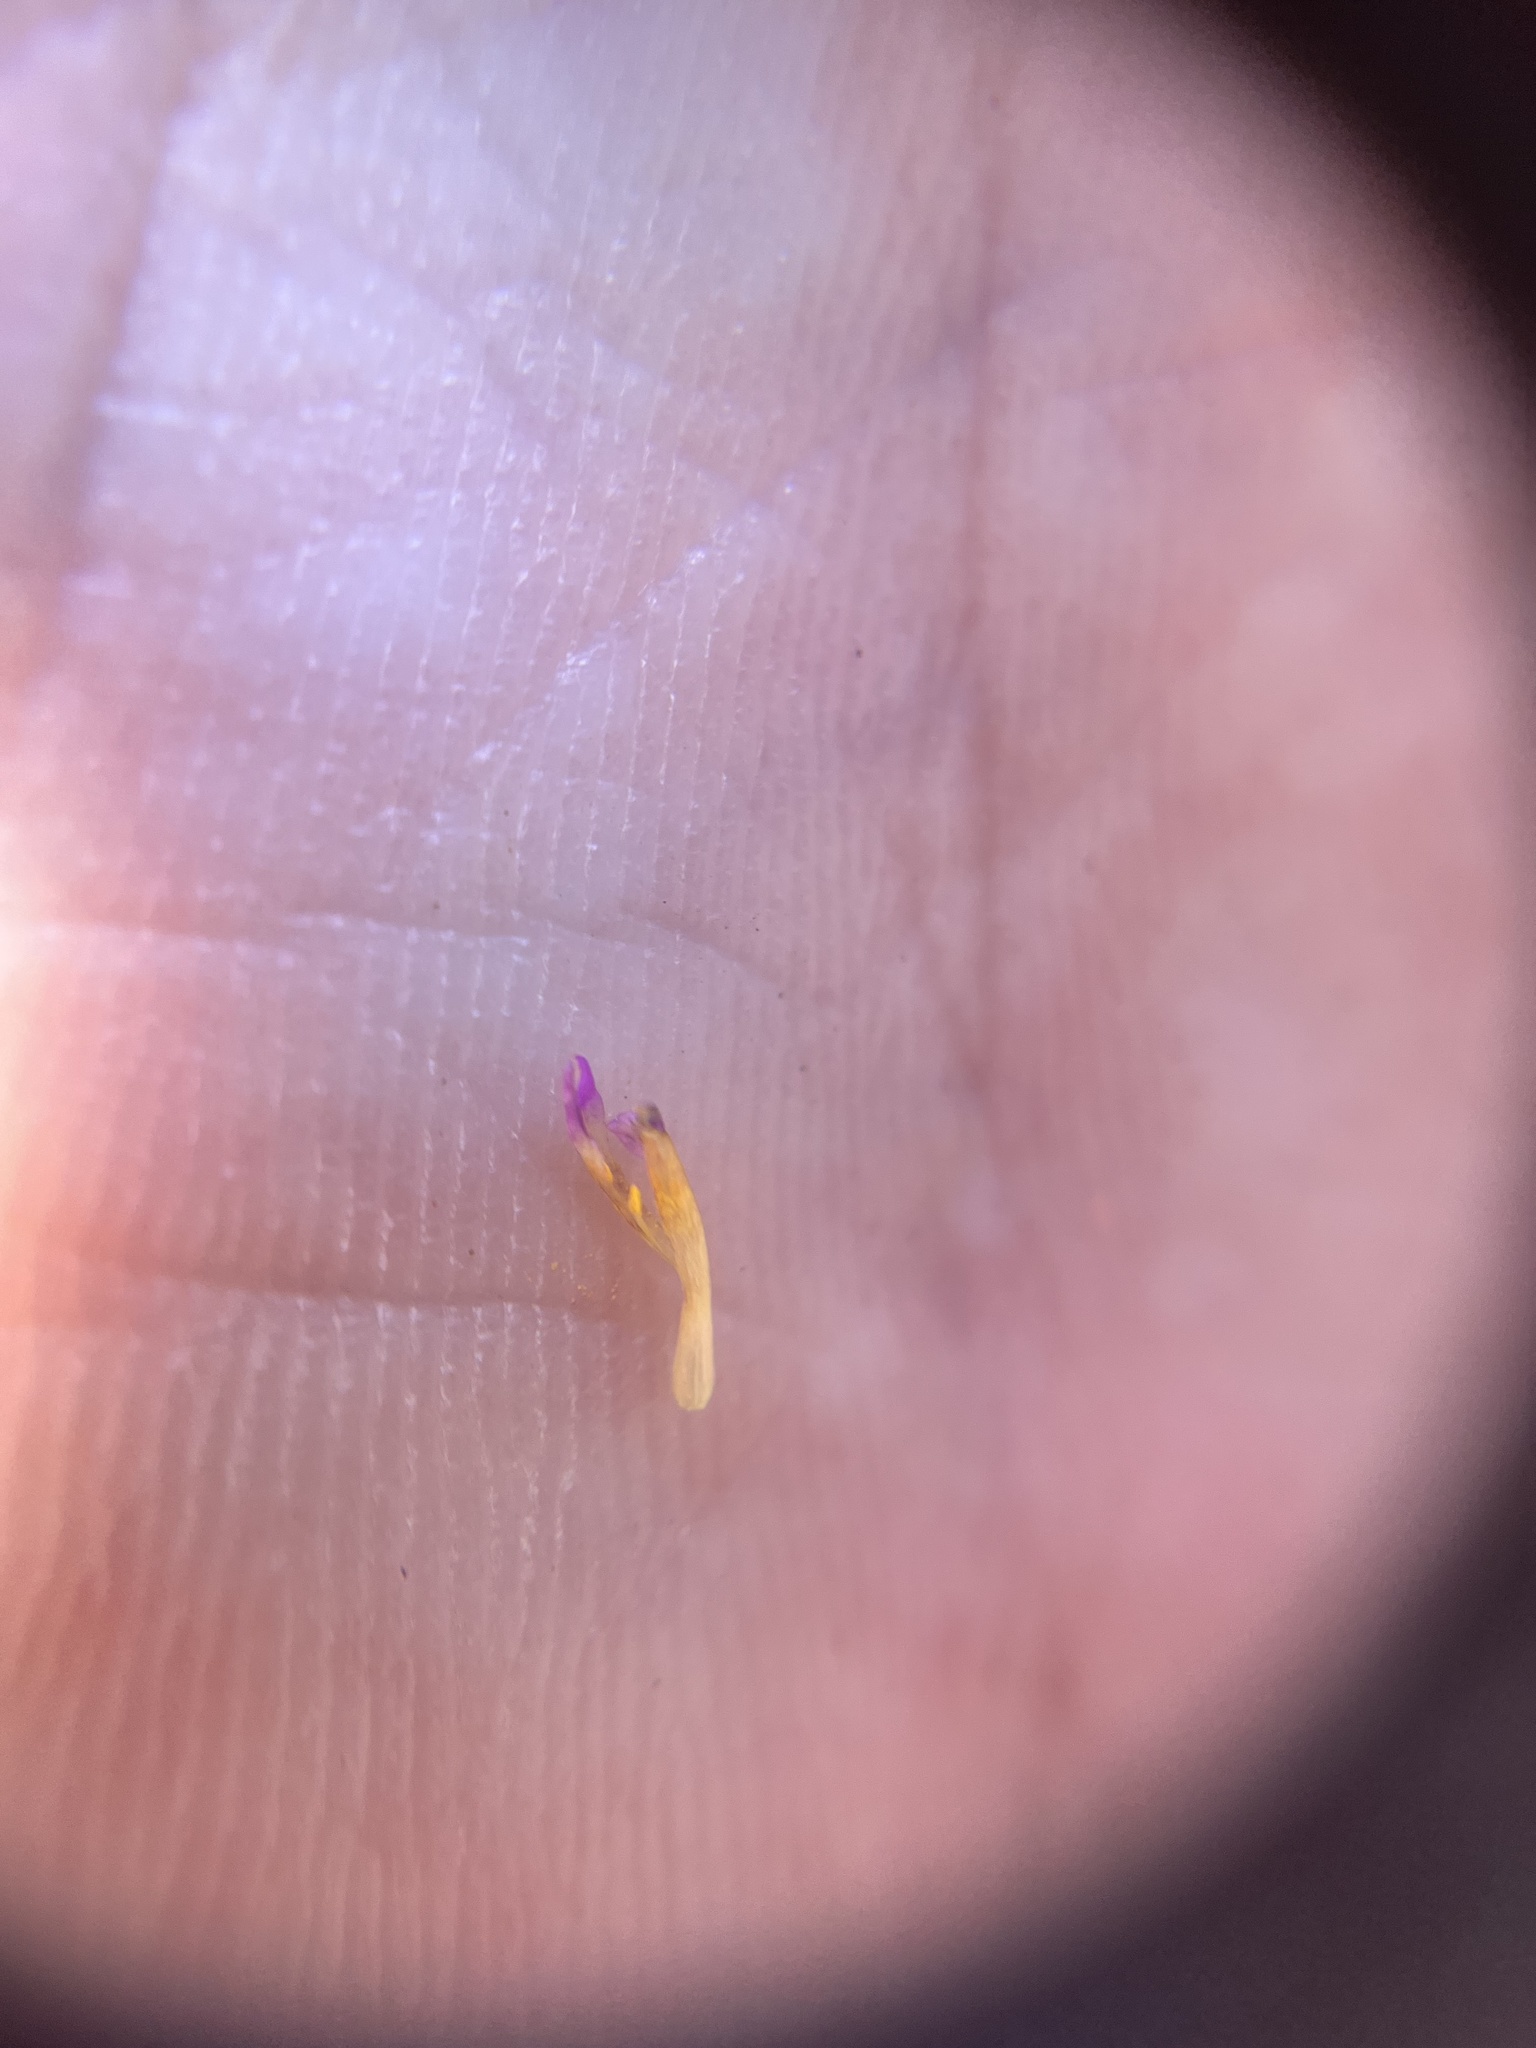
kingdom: Plantae
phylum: Tracheophyta
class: Magnoliopsida
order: Ericales
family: Polemoniaceae
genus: Phlox
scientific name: Phlox gracilis
